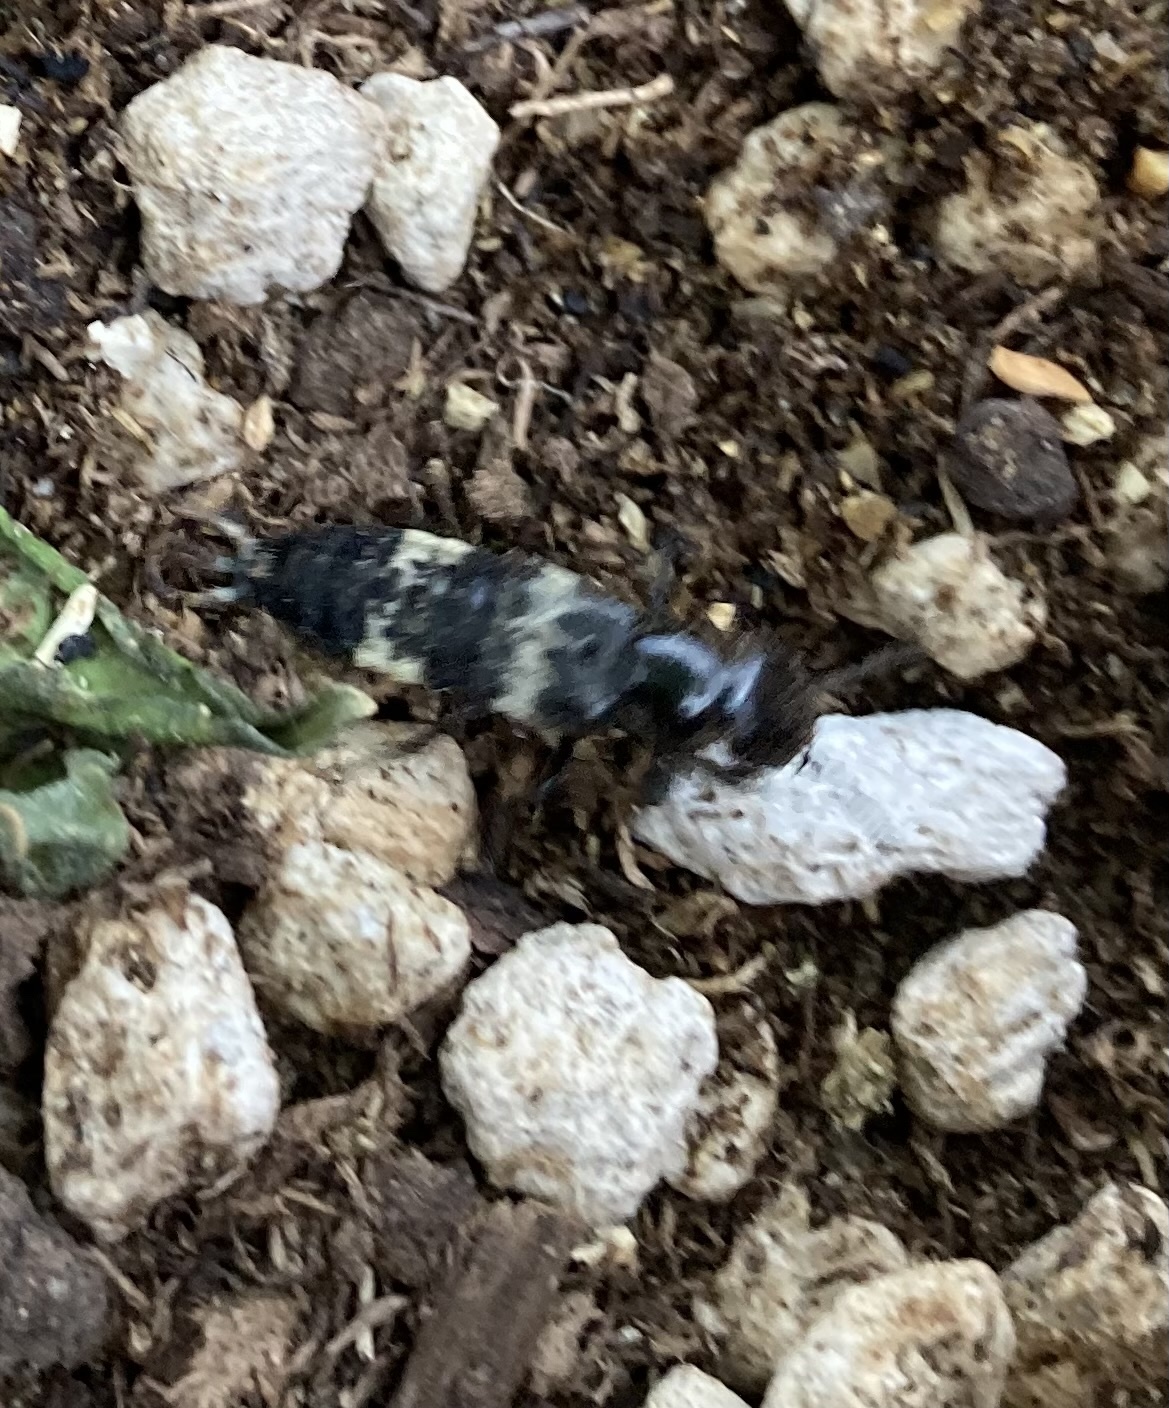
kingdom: Animalia
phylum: Arthropoda
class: Insecta
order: Coleoptera
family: Staphylinidae
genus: Creophilus
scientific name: Creophilus maxillosus
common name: Hairy rove beetle
